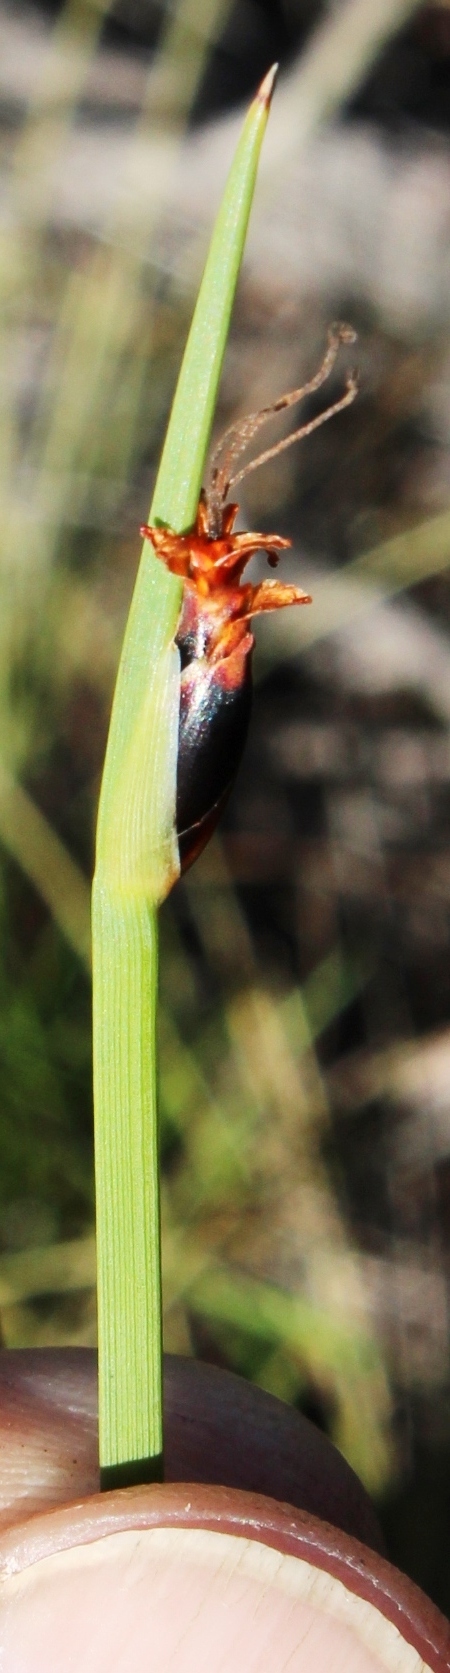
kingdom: Plantae
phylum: Tracheophyta
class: Liliopsida
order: Poales
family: Cyperaceae
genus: Chrysitrix
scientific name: Chrysitrix capensis
